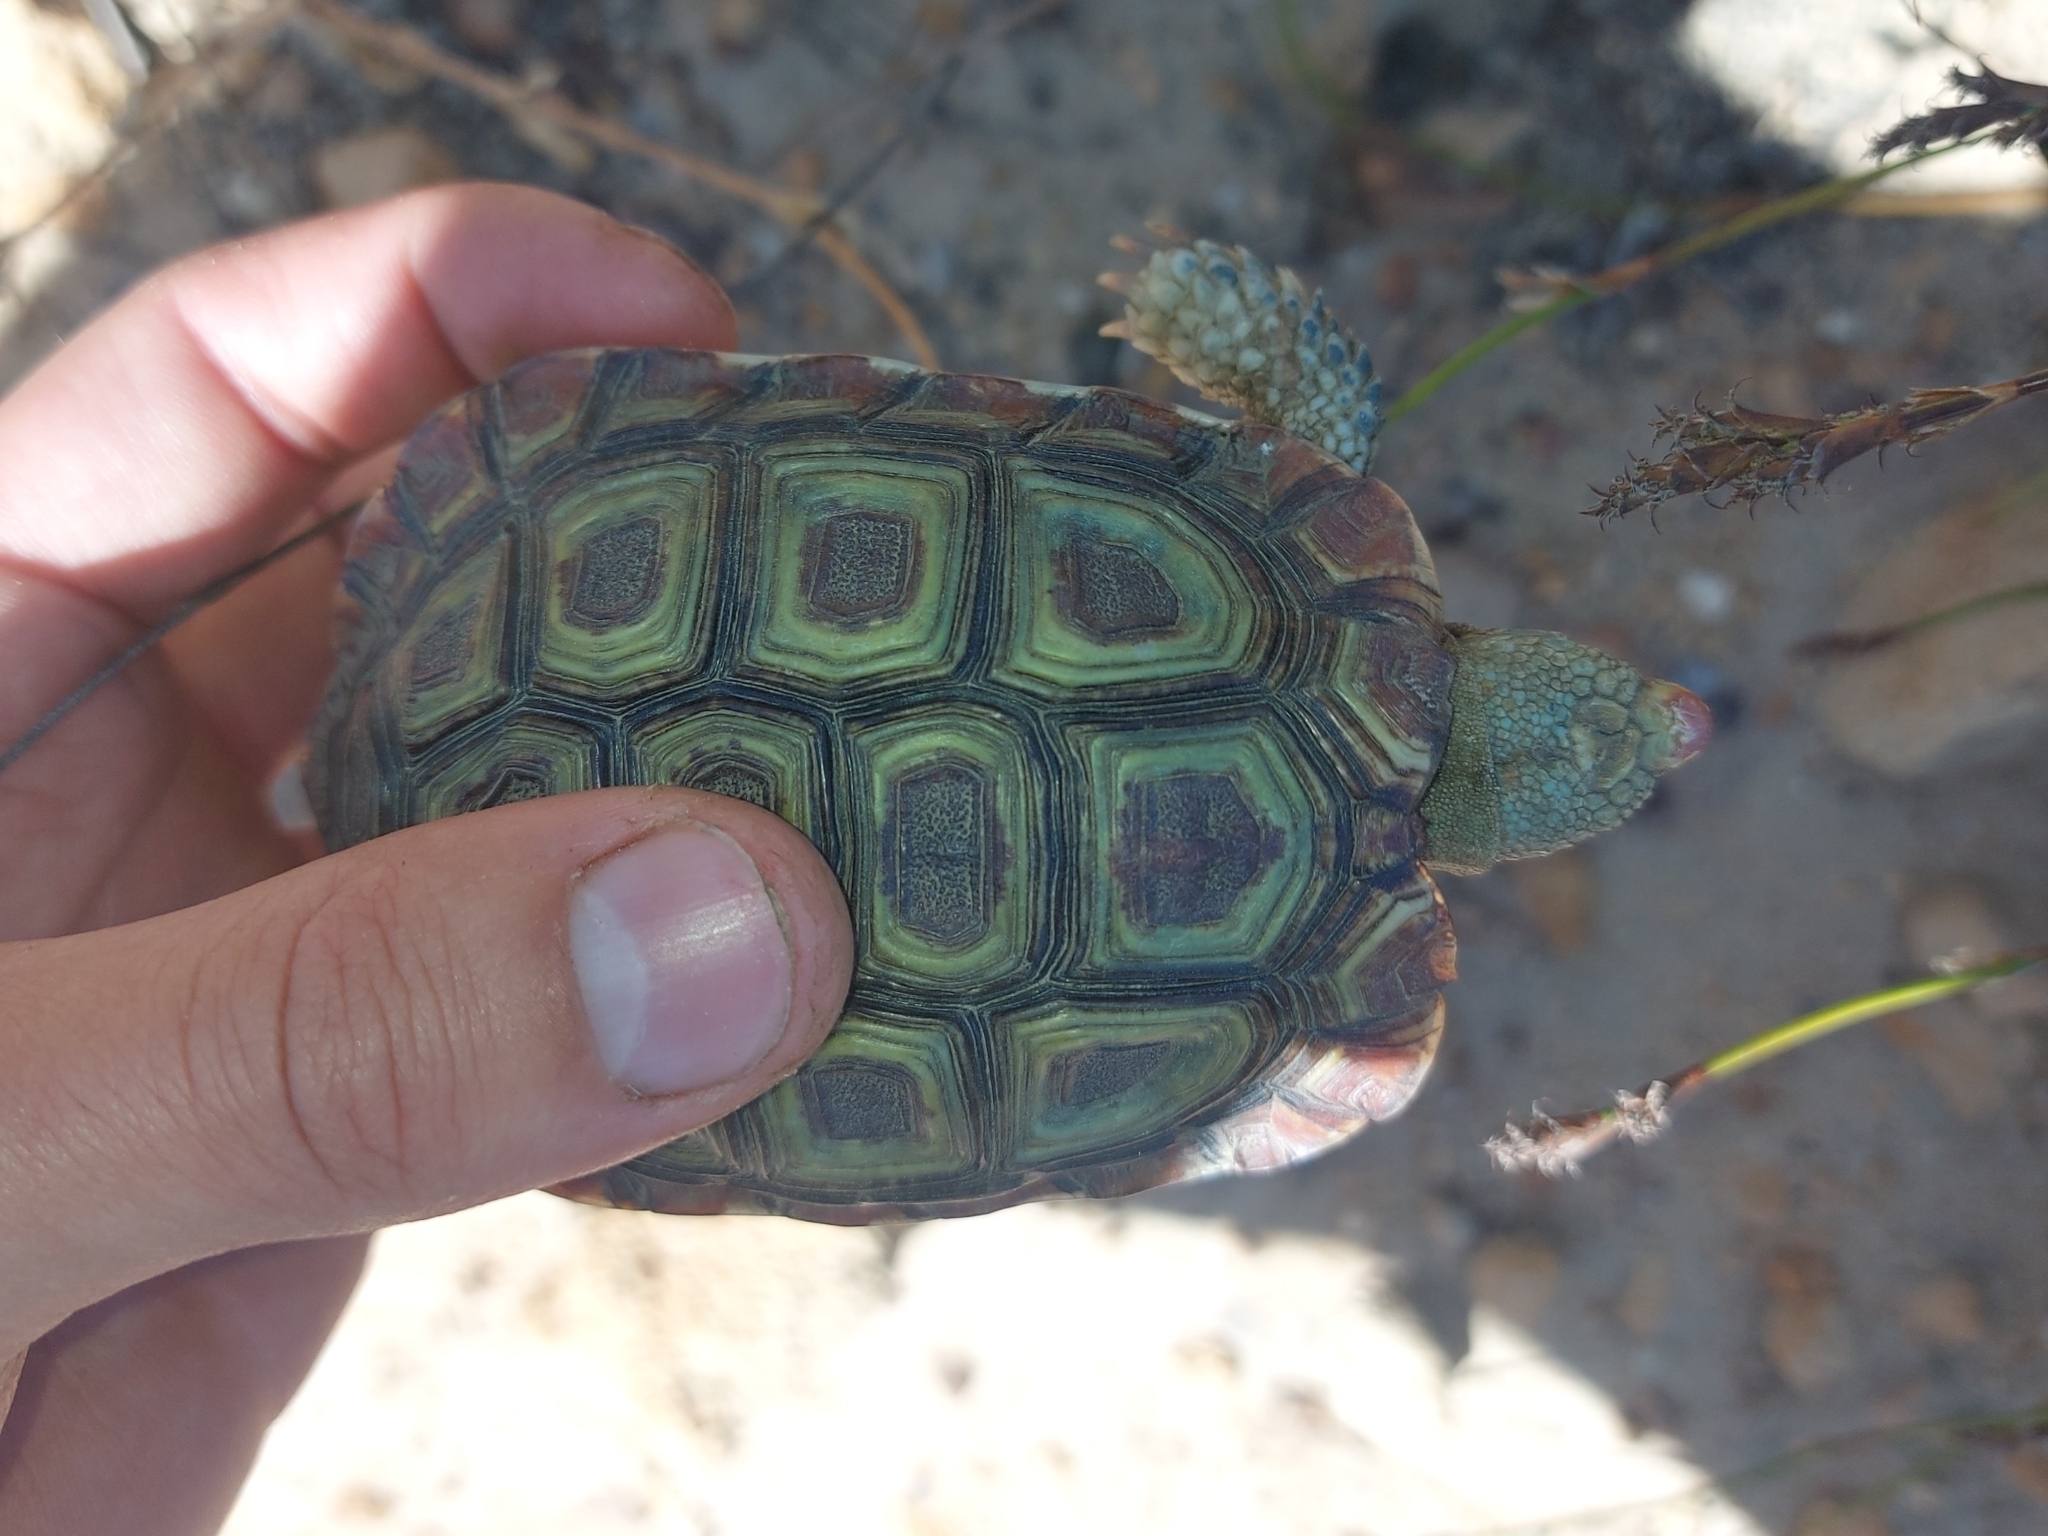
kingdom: Animalia
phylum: Chordata
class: Testudines
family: Testudinidae
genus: Homopus
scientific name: Homopus areolatus
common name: Parrot-beaked tortoise
